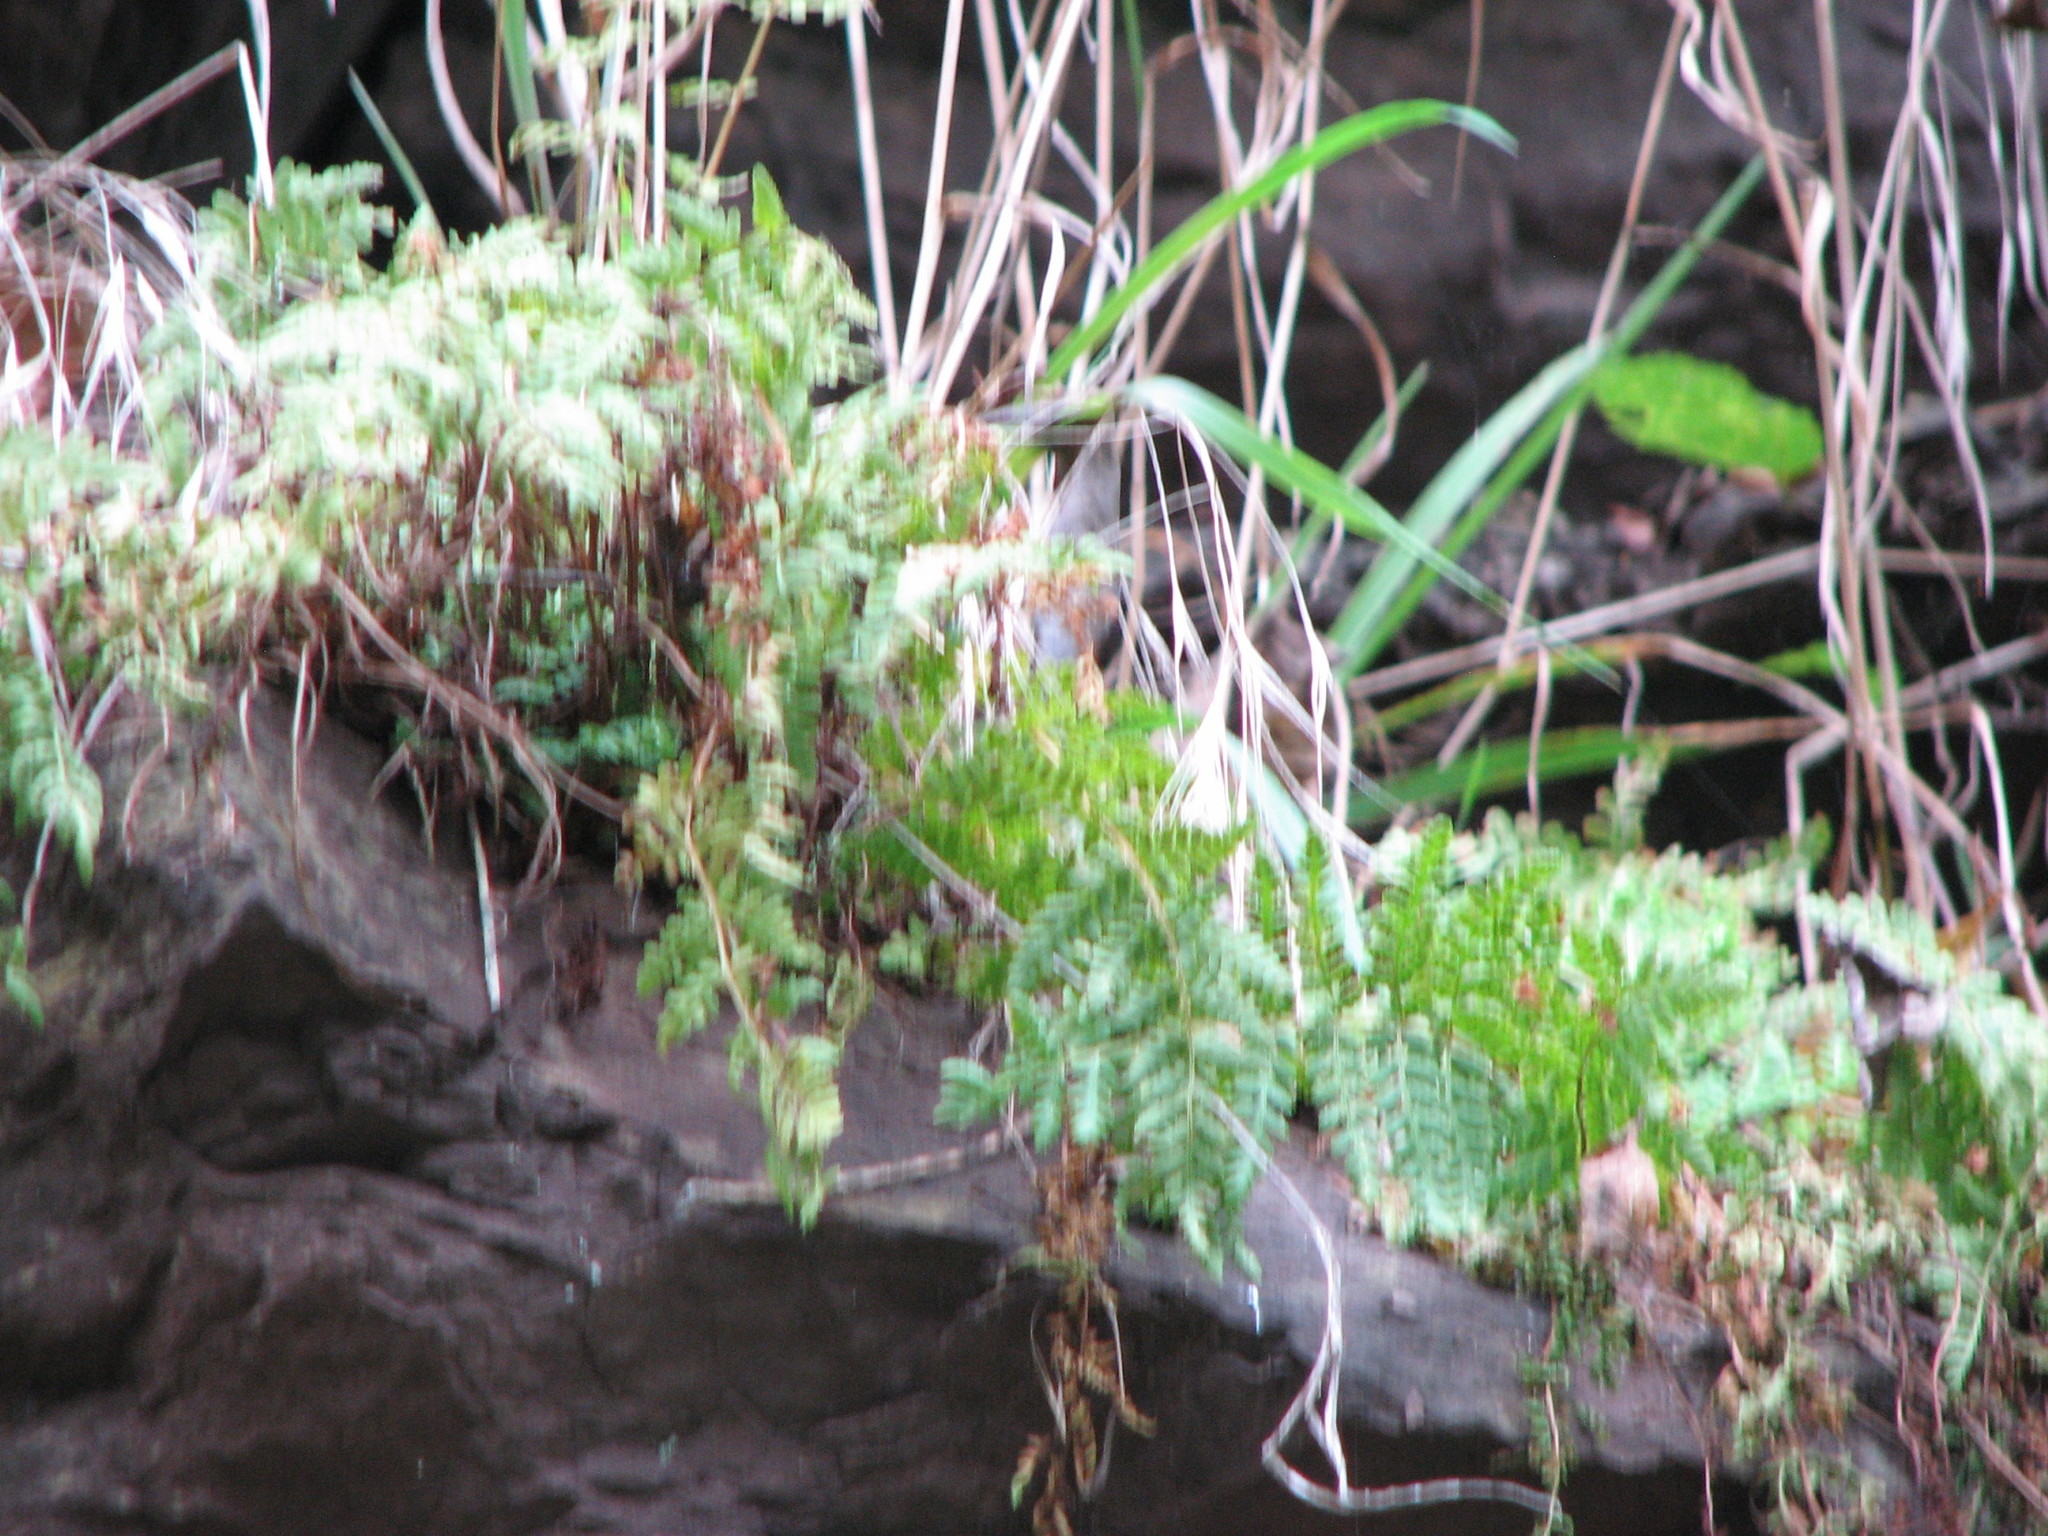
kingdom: Plantae
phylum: Tracheophyta
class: Polypodiopsida
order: Polypodiales
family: Woodsiaceae
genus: Physematium
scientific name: Physematium obtusum
